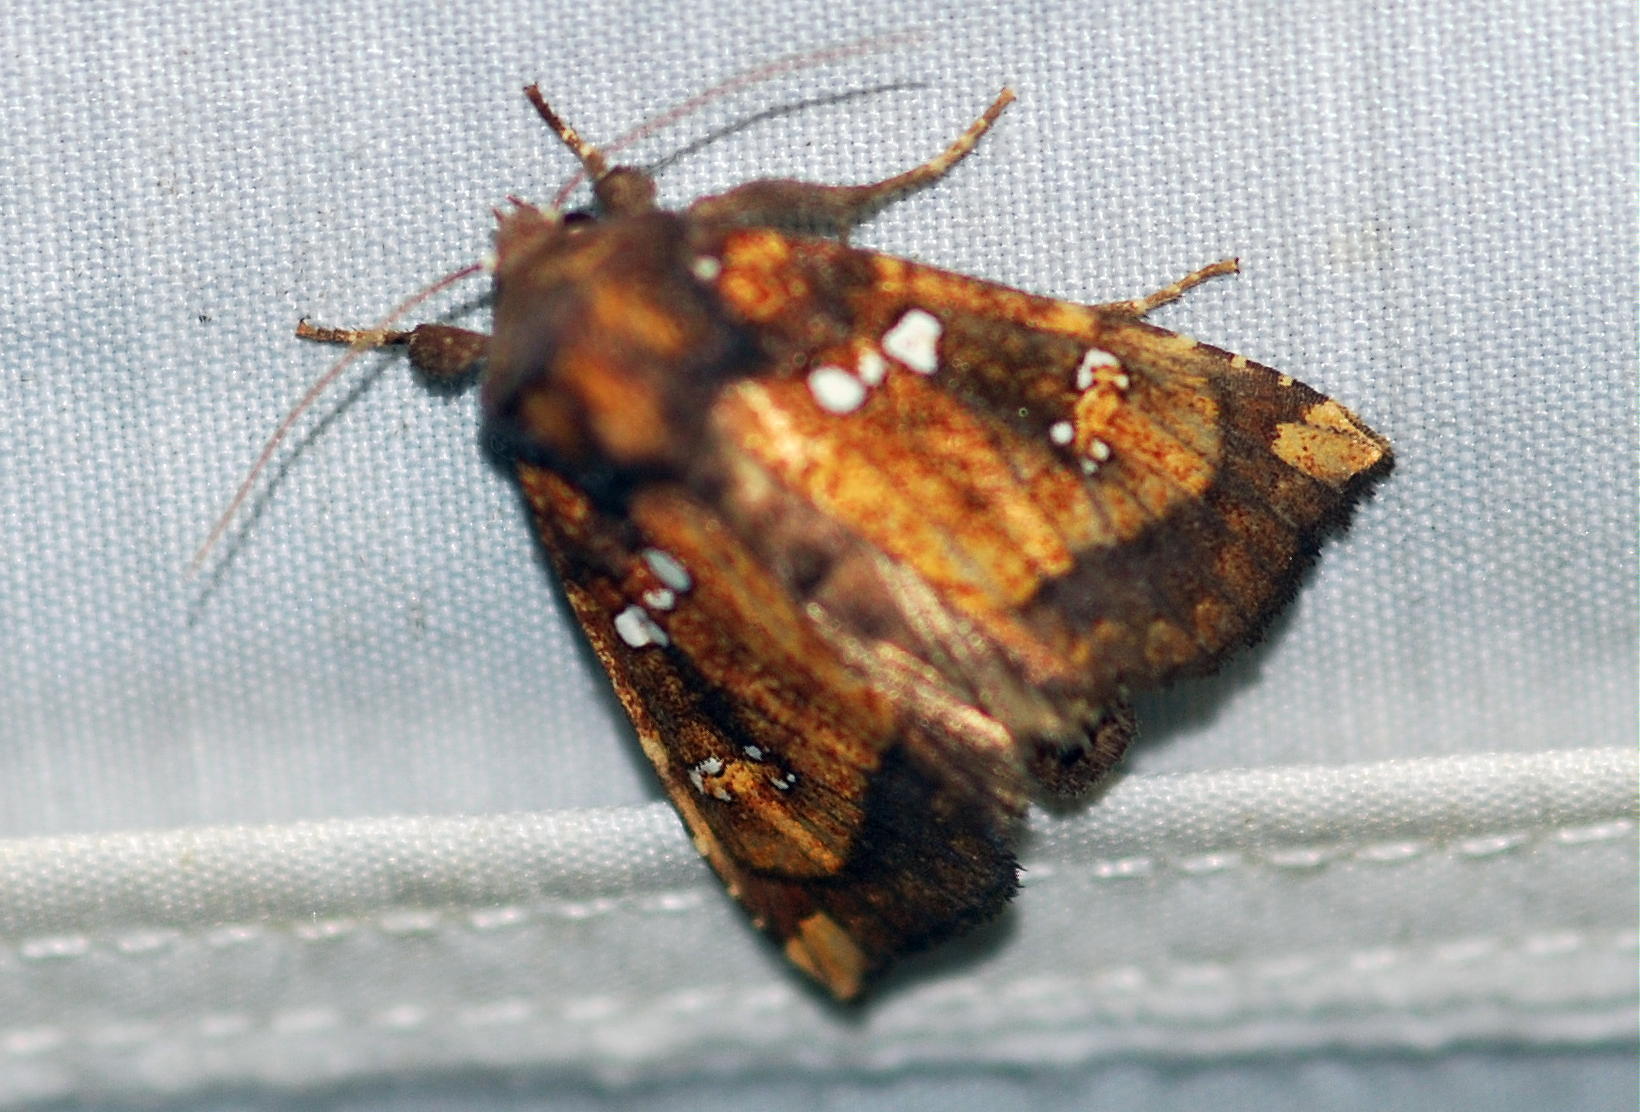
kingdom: Animalia
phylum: Arthropoda
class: Insecta
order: Lepidoptera
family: Noctuidae
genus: Papaipema
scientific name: Papaipema arctivorens
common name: Northern burdock borer moth
